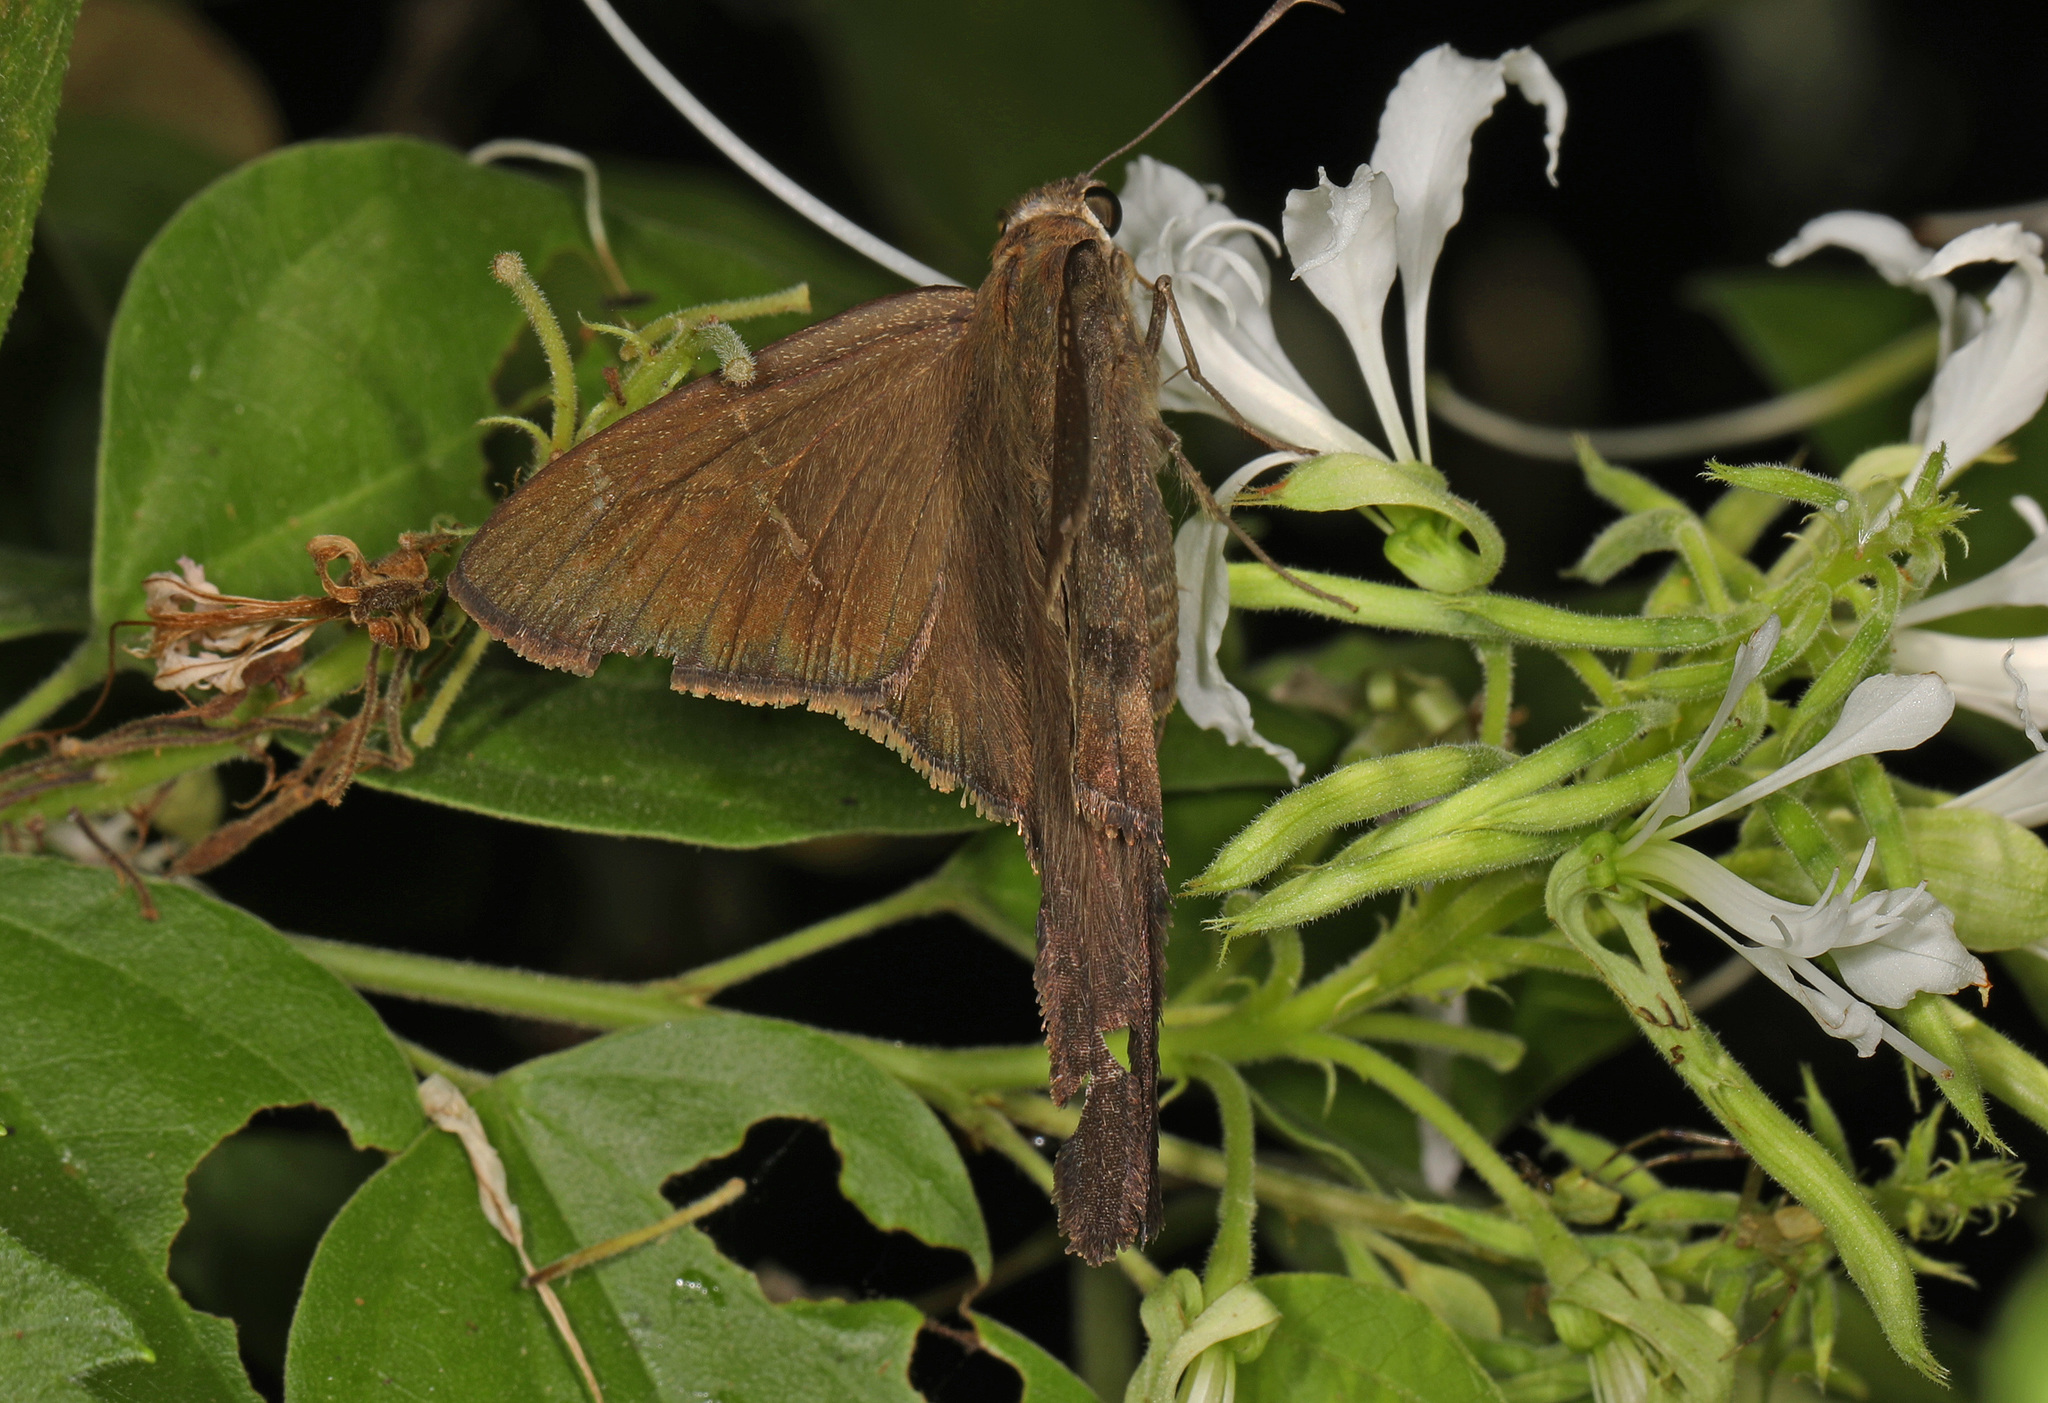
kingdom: Animalia
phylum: Arthropoda
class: Insecta
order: Lepidoptera
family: Hesperiidae
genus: Urbanus
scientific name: Urbanus procne
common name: Brown longtail
